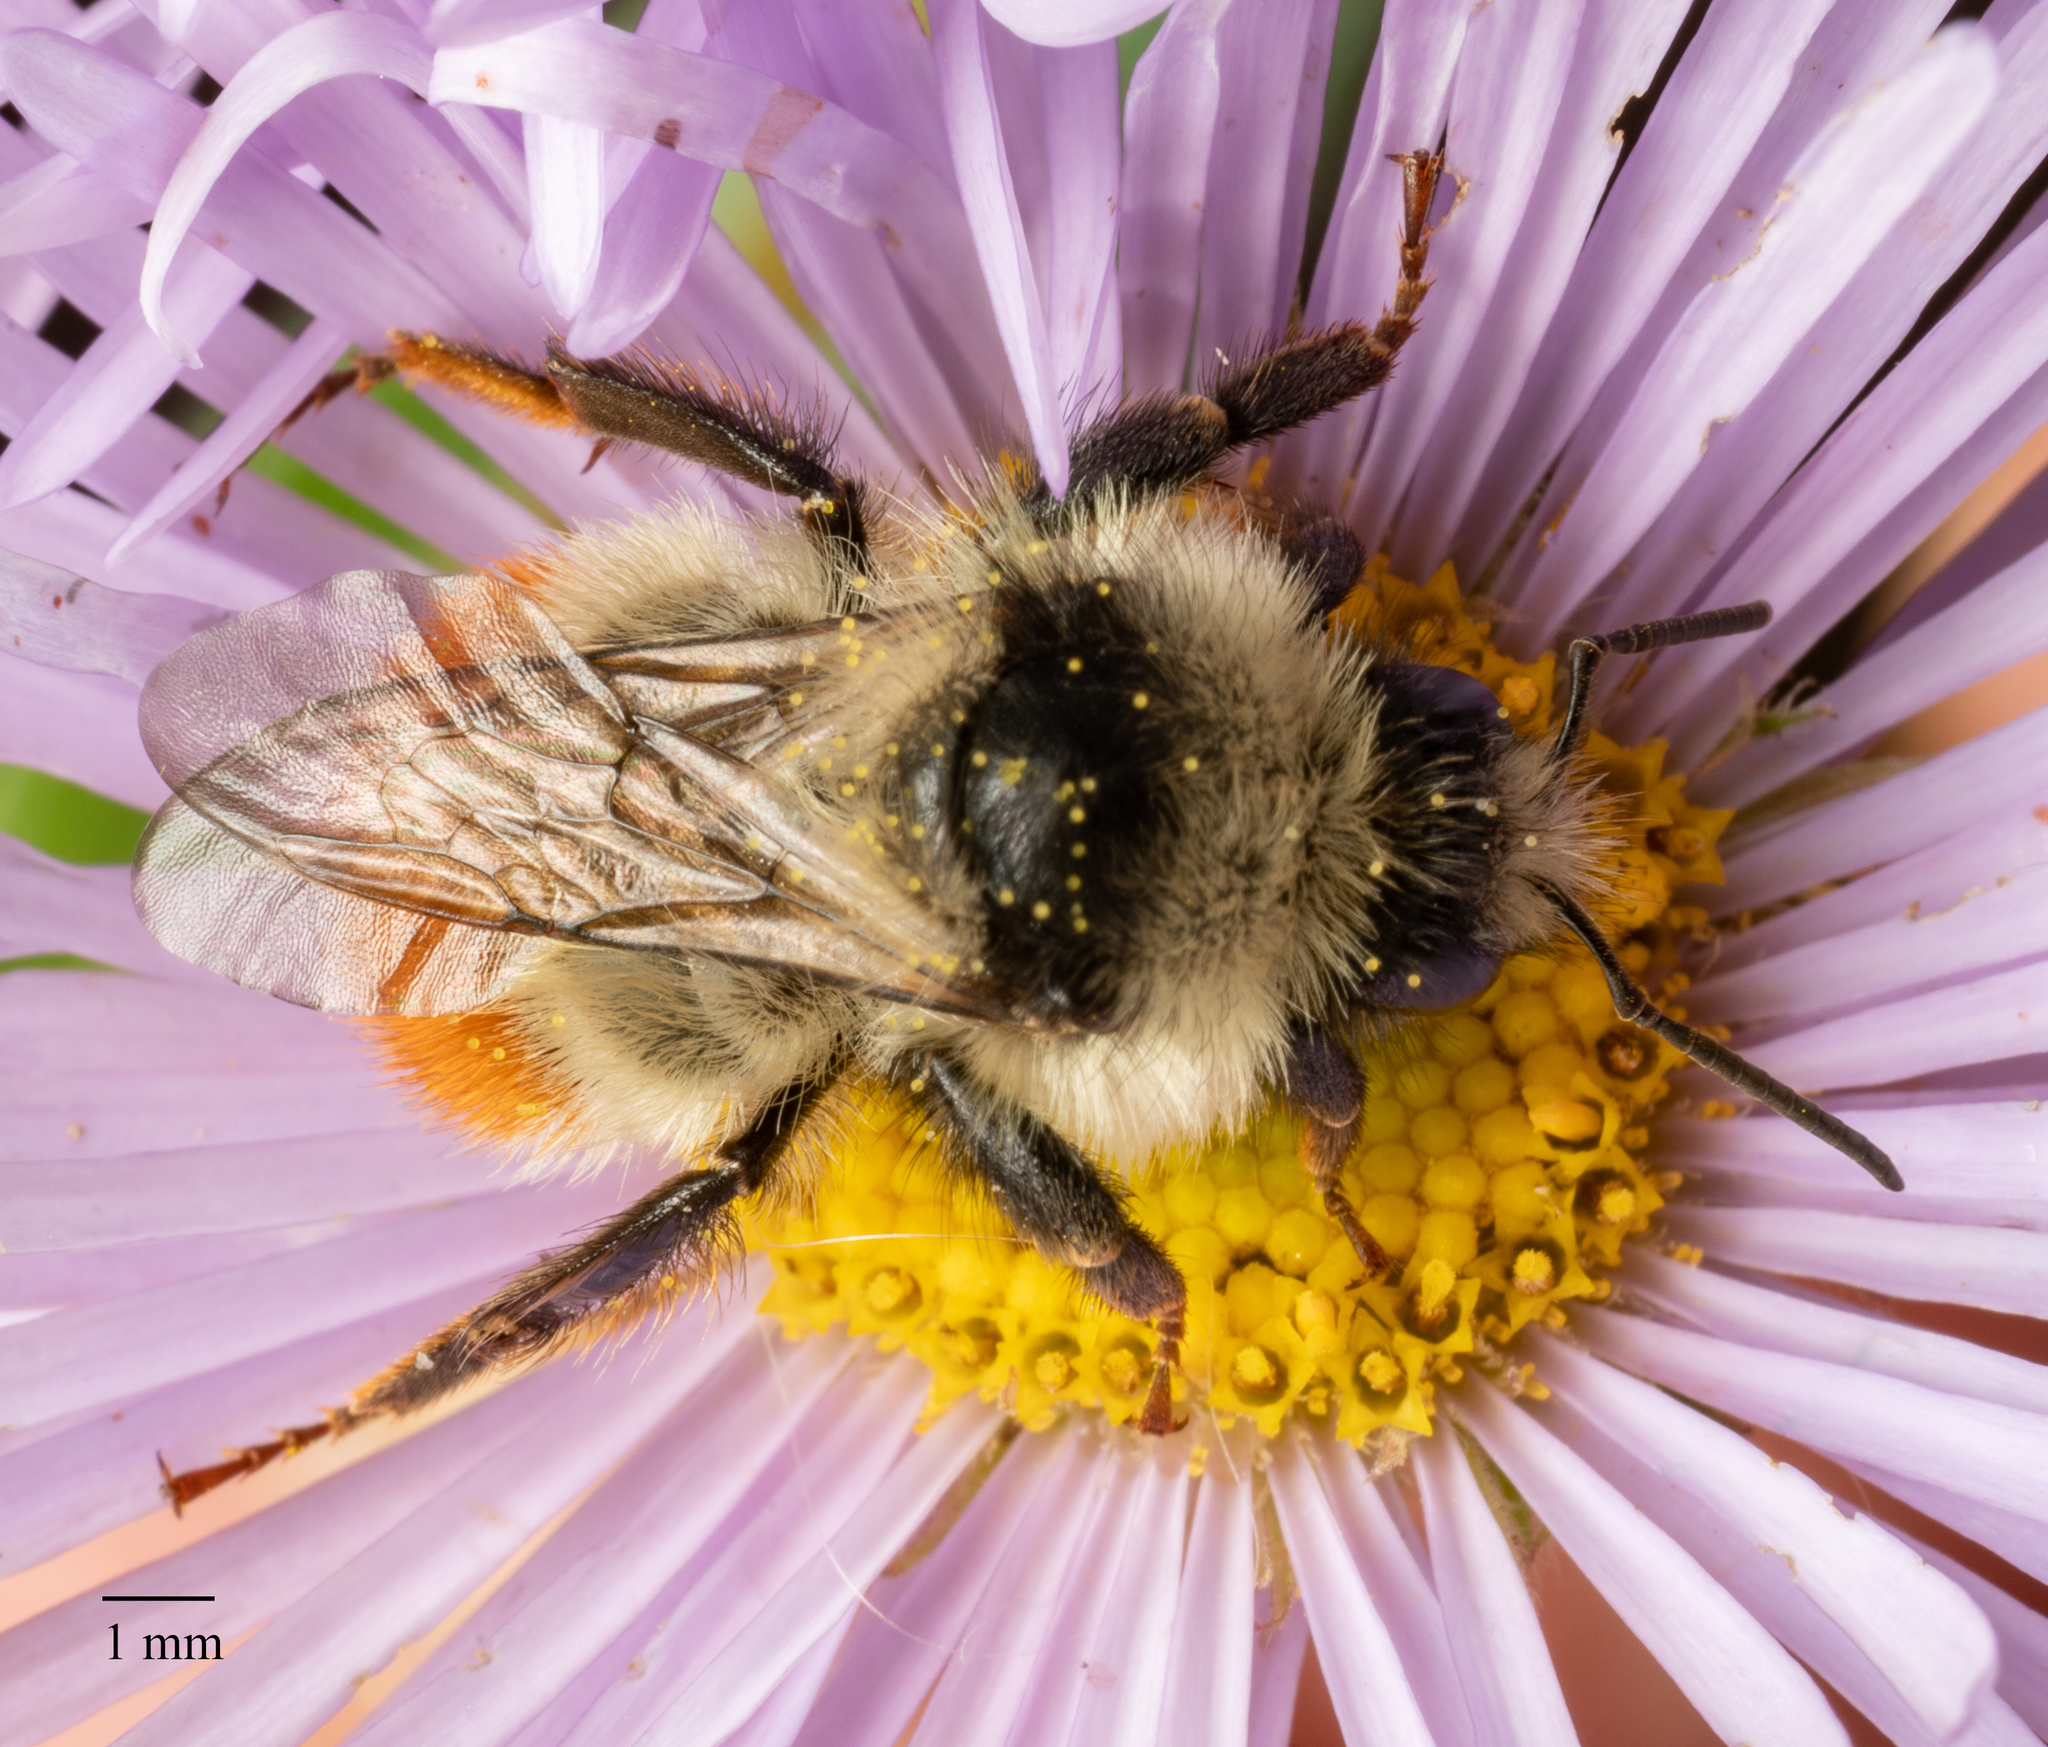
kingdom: Animalia
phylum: Arthropoda
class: Insecta
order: Hymenoptera
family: Apidae
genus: Pyrobombus
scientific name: Pyrobombus
